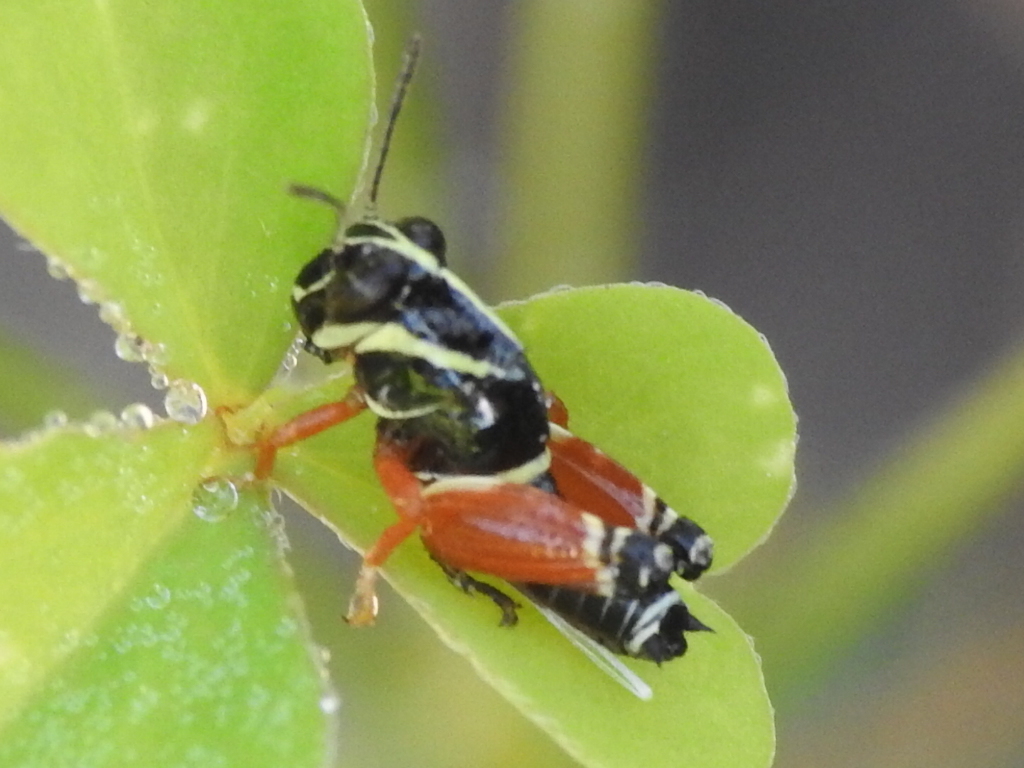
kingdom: Animalia
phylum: Arthropoda
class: Insecta
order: Orthoptera
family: Acrididae
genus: Aidemona
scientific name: Aidemona azteca
